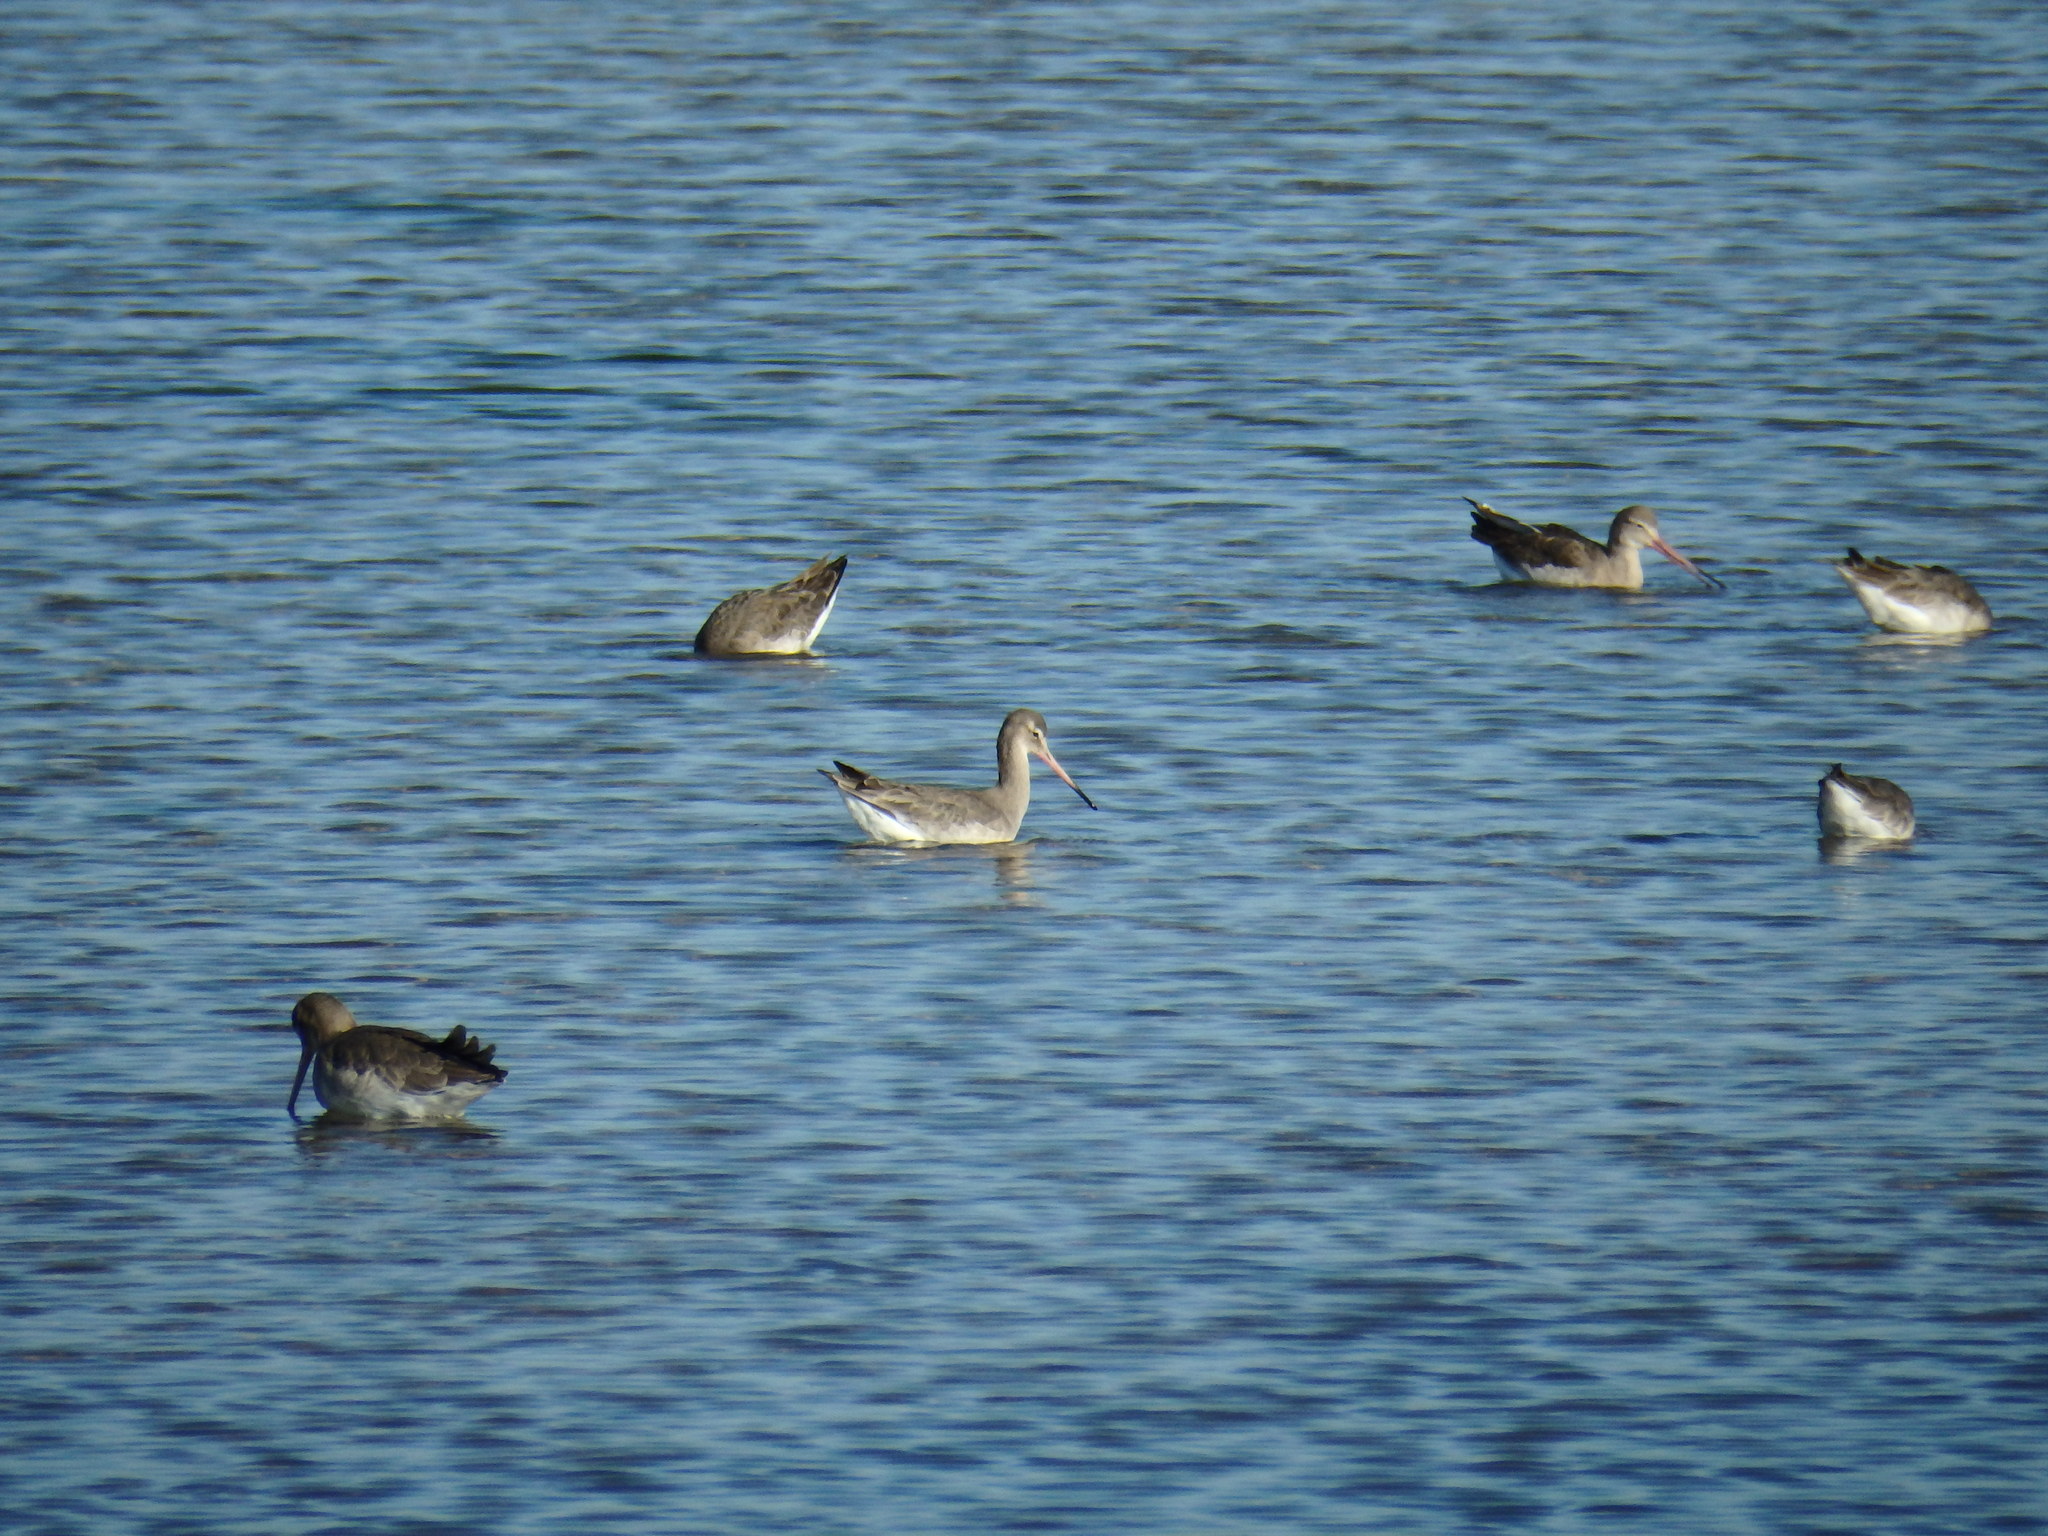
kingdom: Animalia
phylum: Chordata
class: Aves
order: Charadriiformes
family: Scolopacidae
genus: Limosa
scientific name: Limosa limosa
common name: Black-tailed godwit
